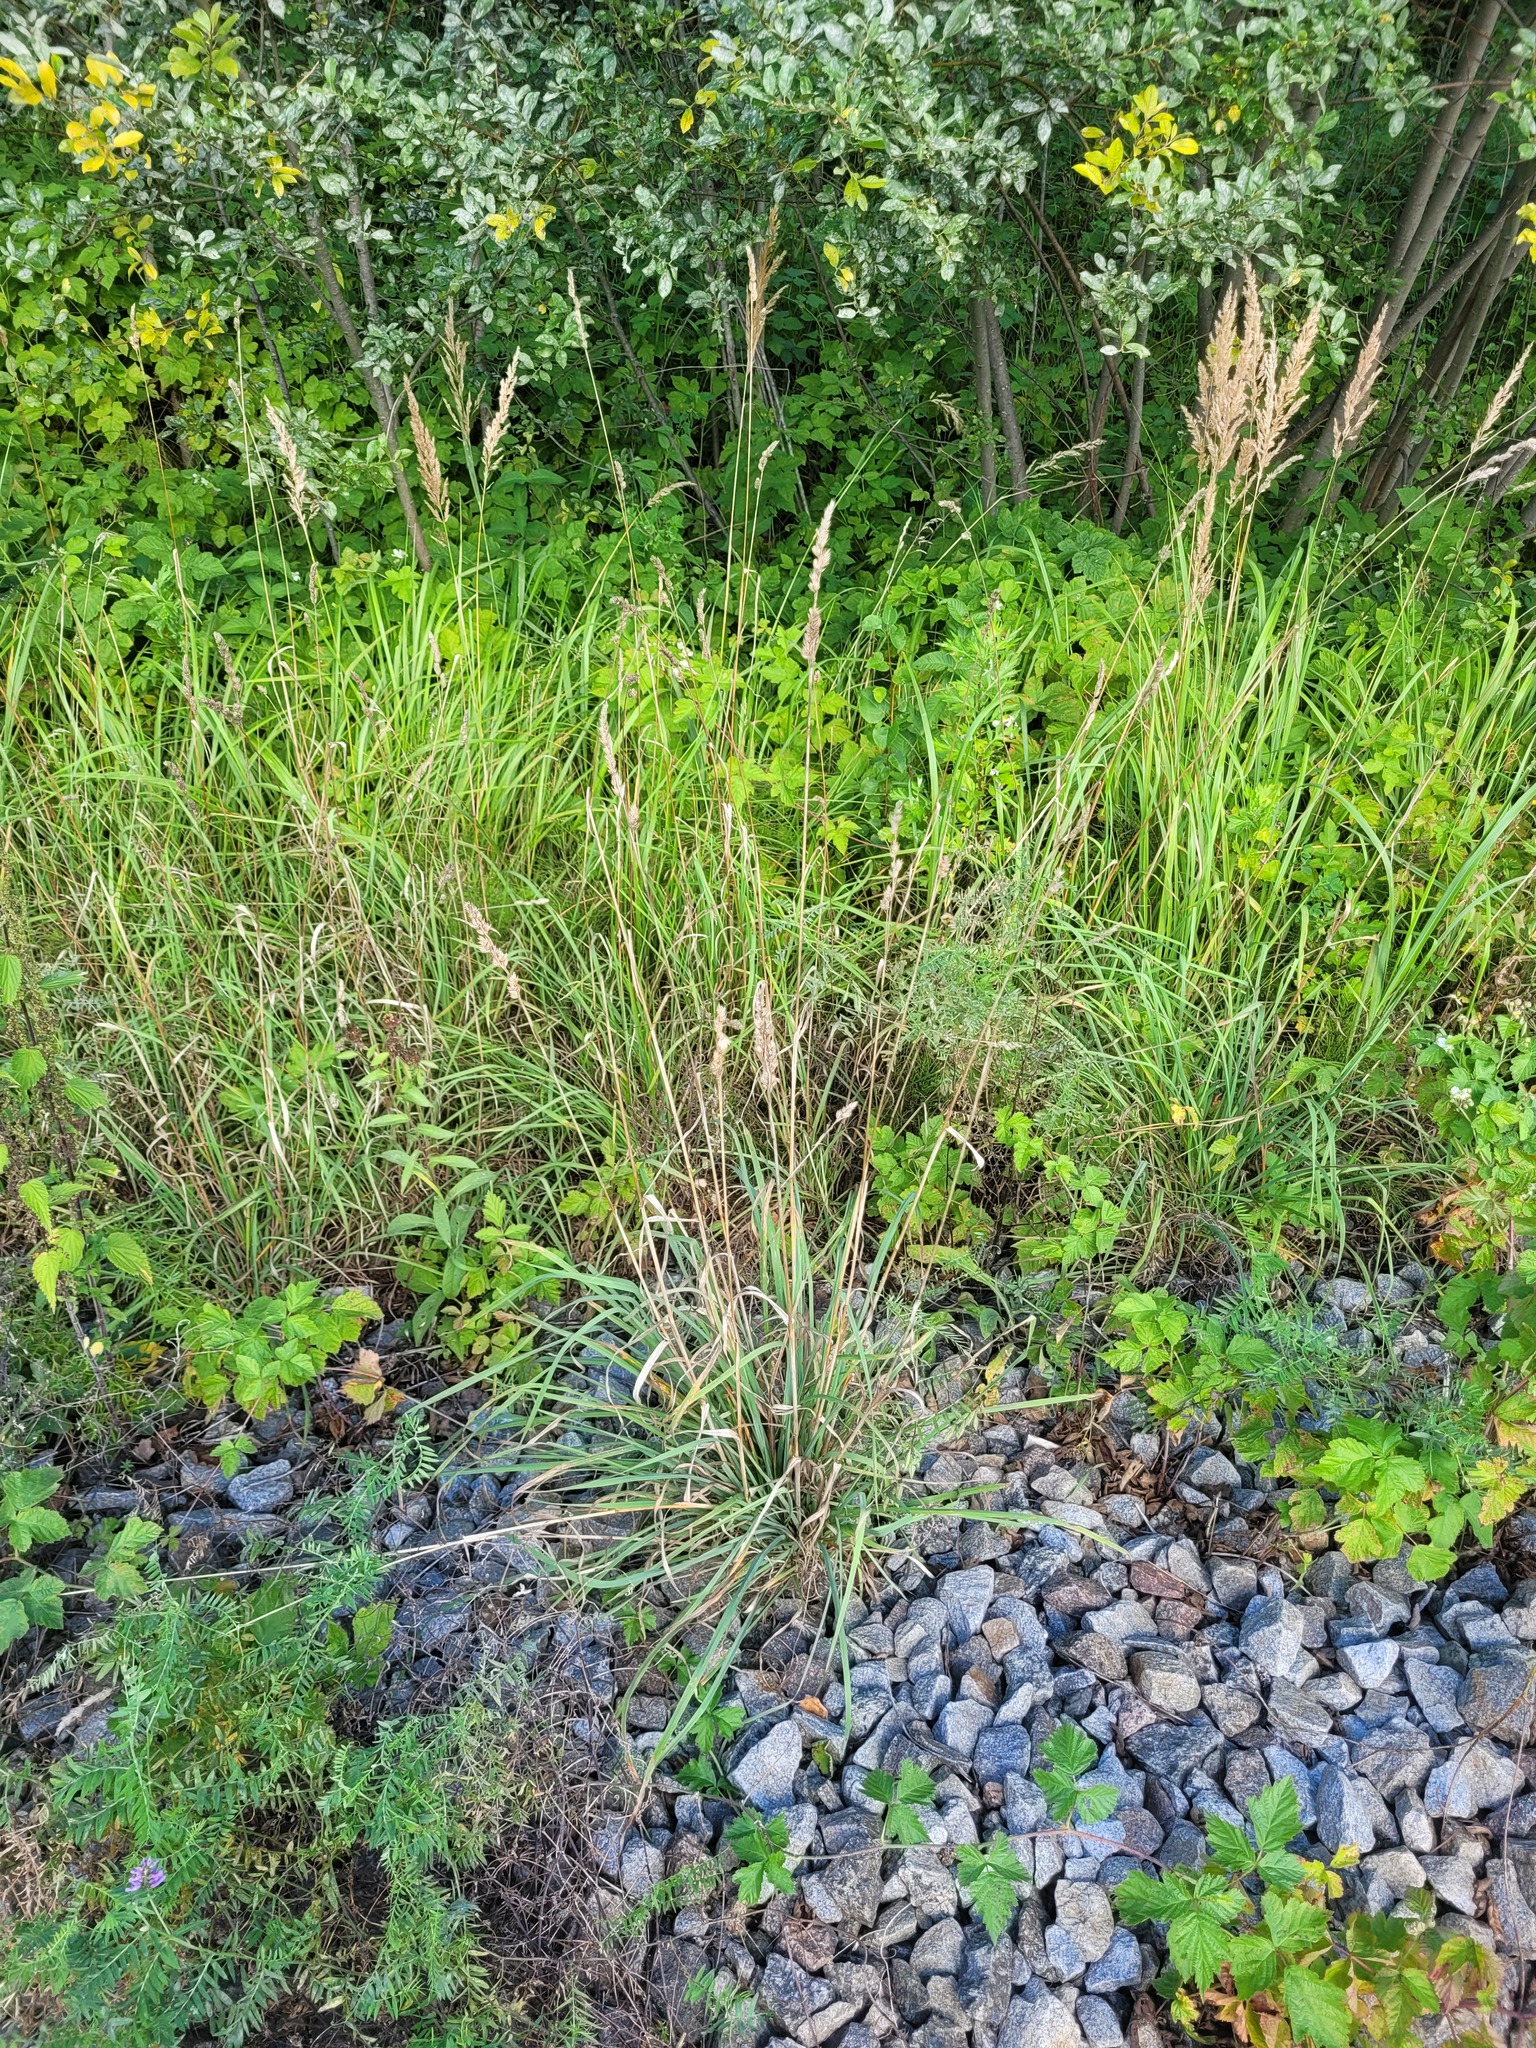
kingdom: Plantae
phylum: Tracheophyta
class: Liliopsida
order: Poales
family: Poaceae
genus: Dactylis
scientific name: Dactylis glomerata
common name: Orchardgrass
